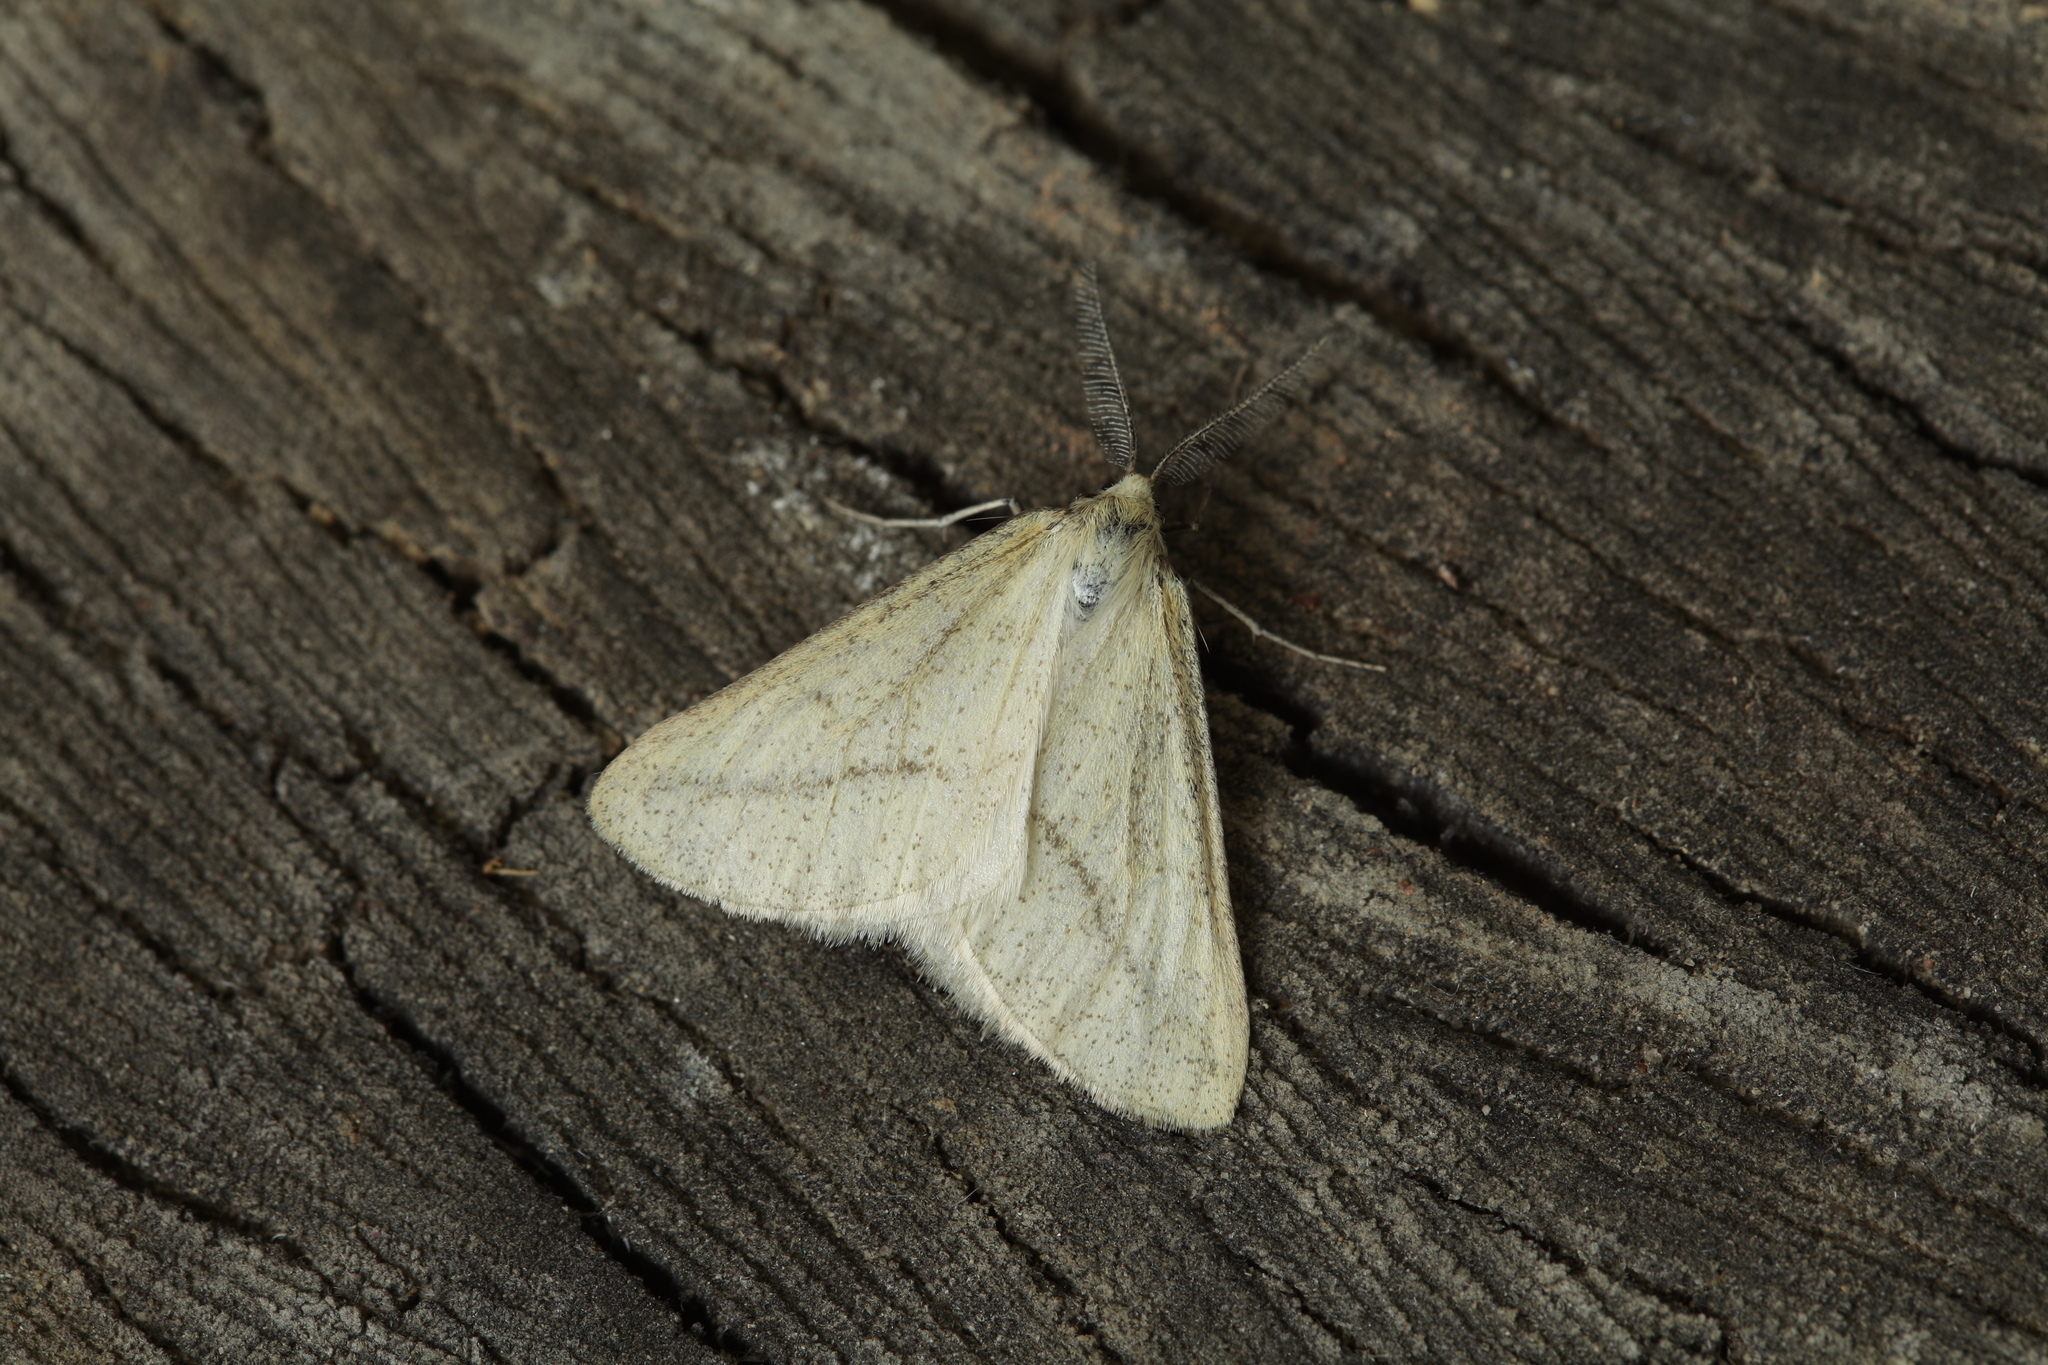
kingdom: Animalia
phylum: Arthropoda
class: Insecta
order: Lepidoptera
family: Geometridae
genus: Aspitates
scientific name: Aspitates albaria
